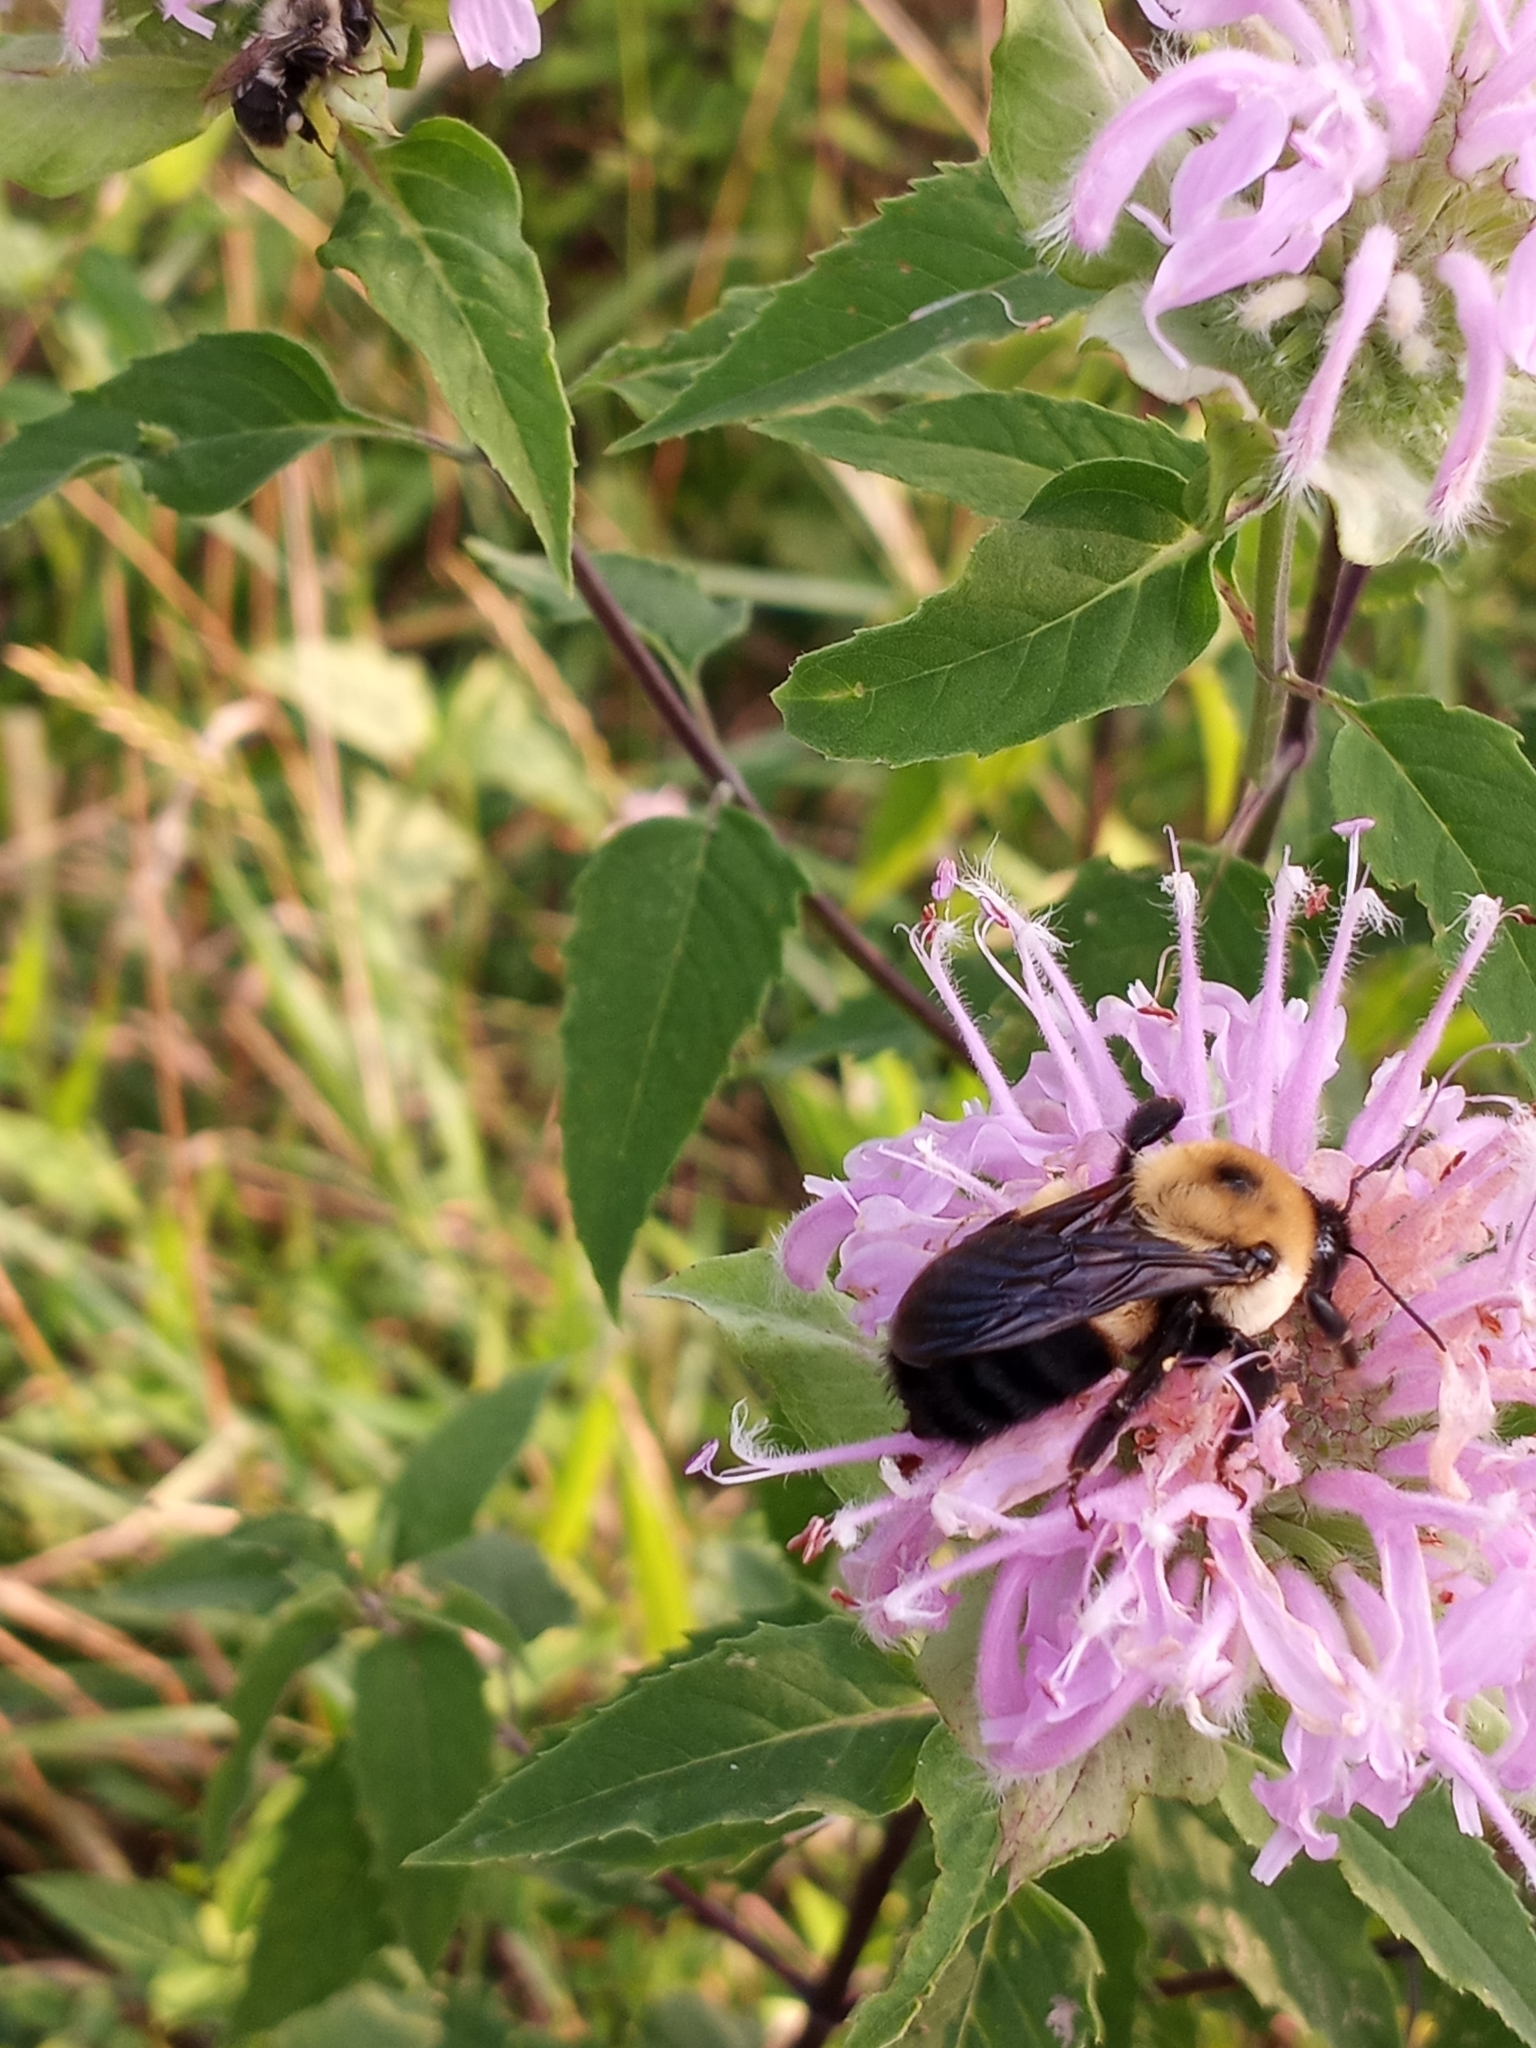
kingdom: Animalia
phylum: Arthropoda
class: Insecta
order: Hymenoptera
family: Apidae
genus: Bombus
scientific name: Bombus griseocollis
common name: Brown-belted bumble bee
